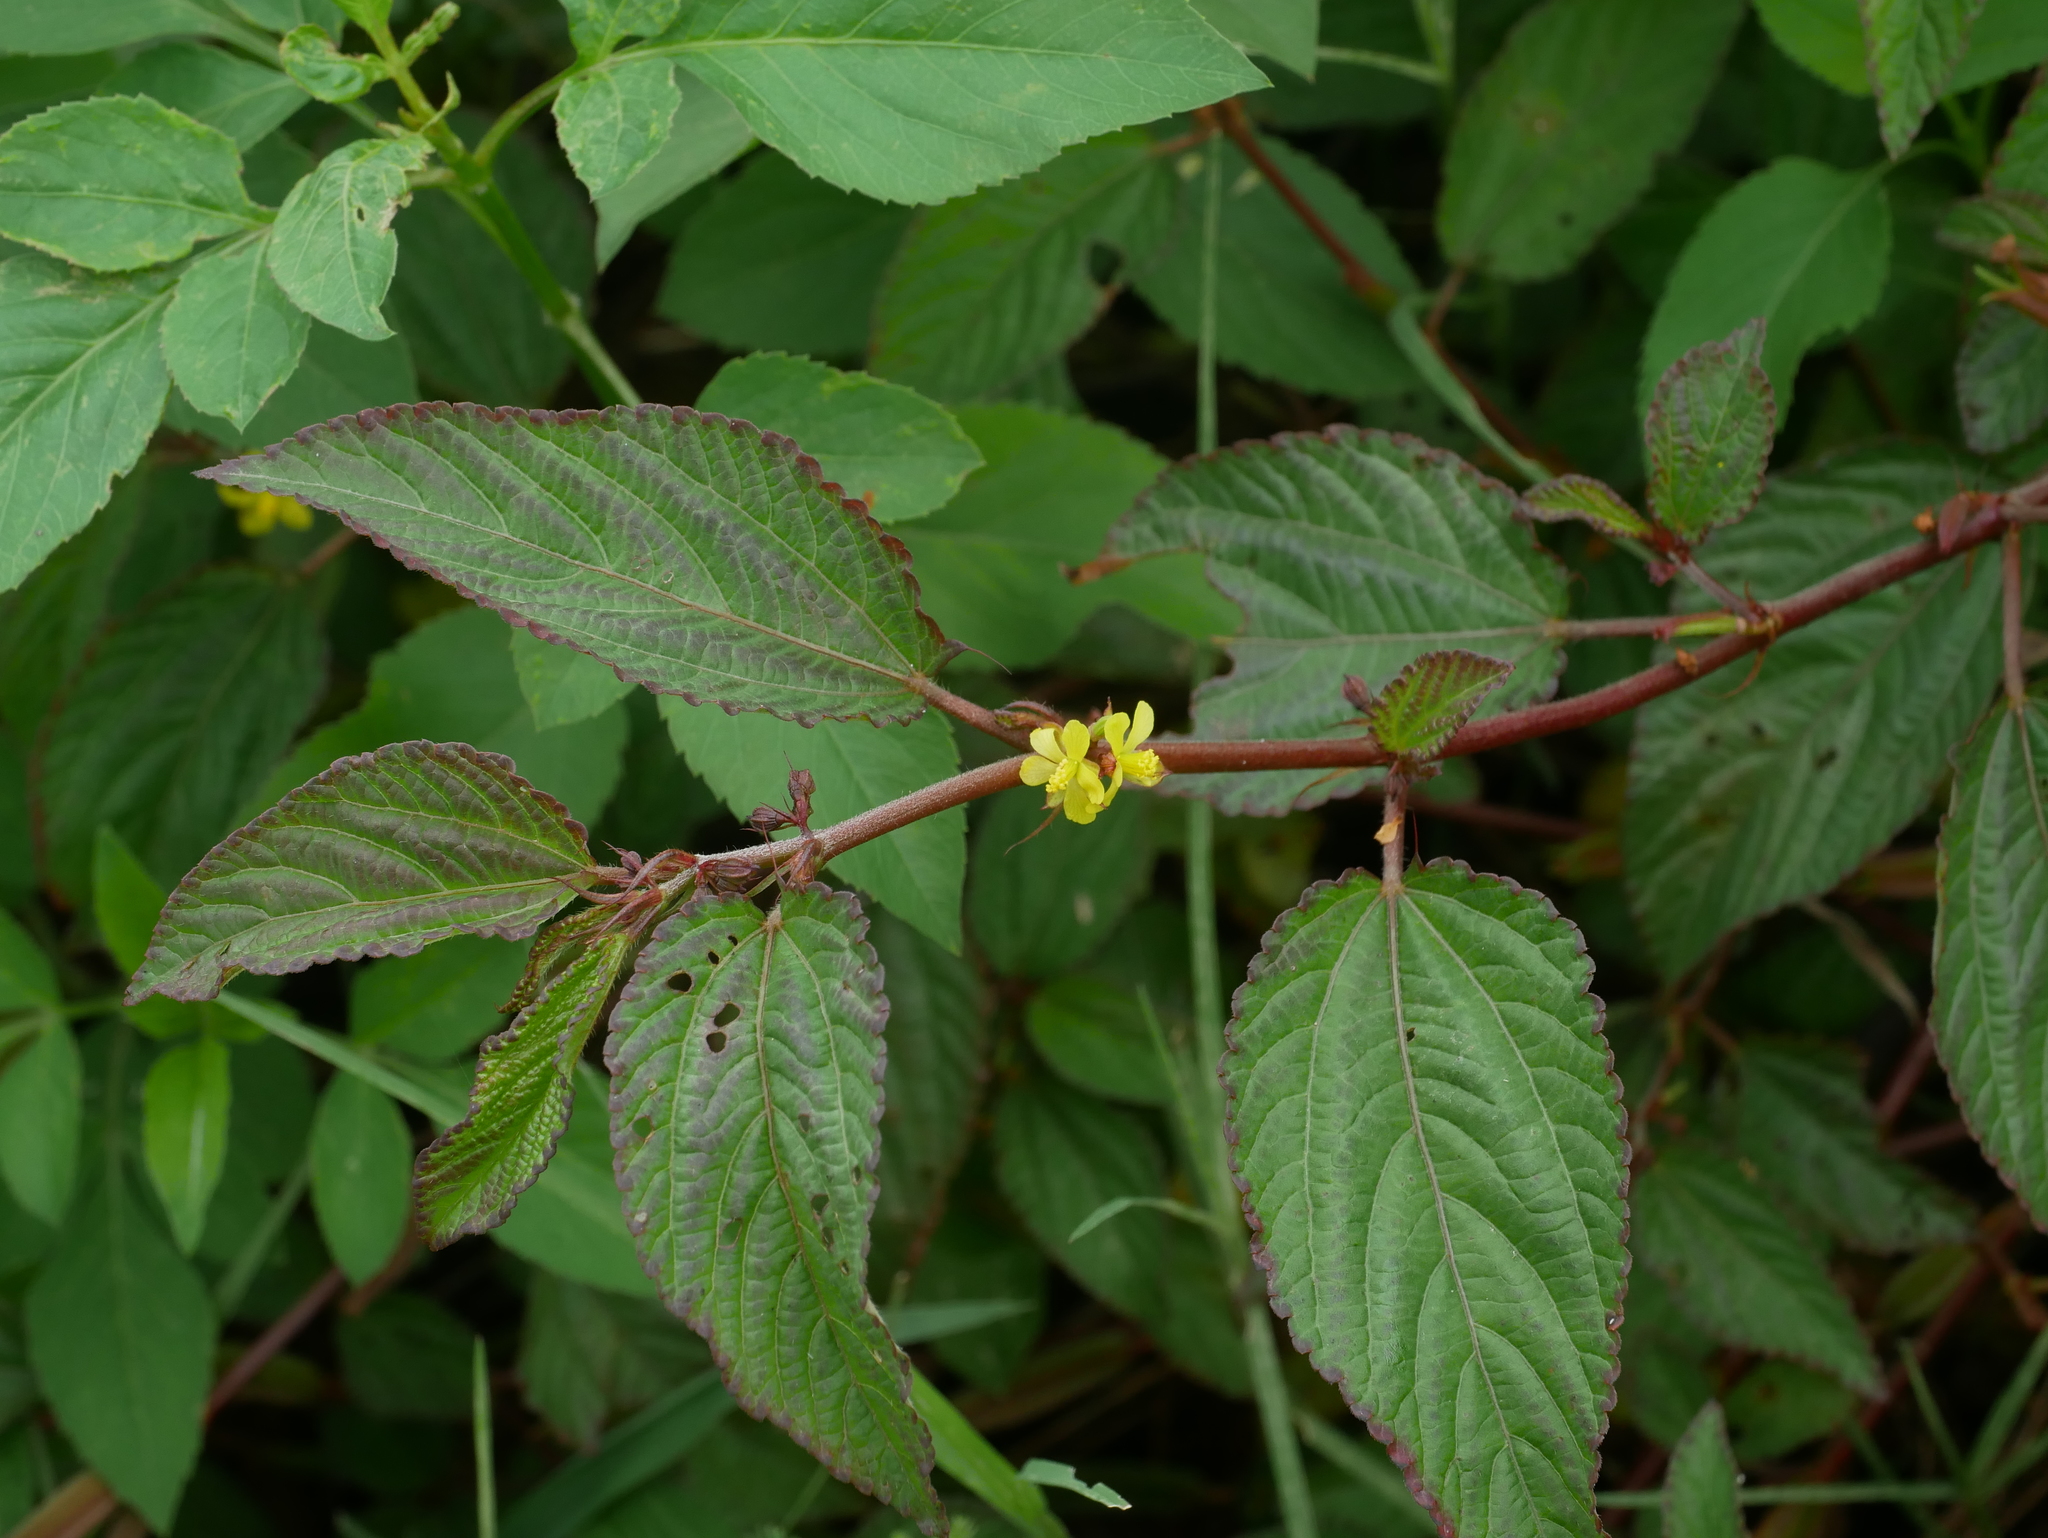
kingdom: Plantae
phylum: Tracheophyta
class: Magnoliopsida
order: Malvales
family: Malvaceae
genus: Corchorus
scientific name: Corchorus aestuans
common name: Jute
